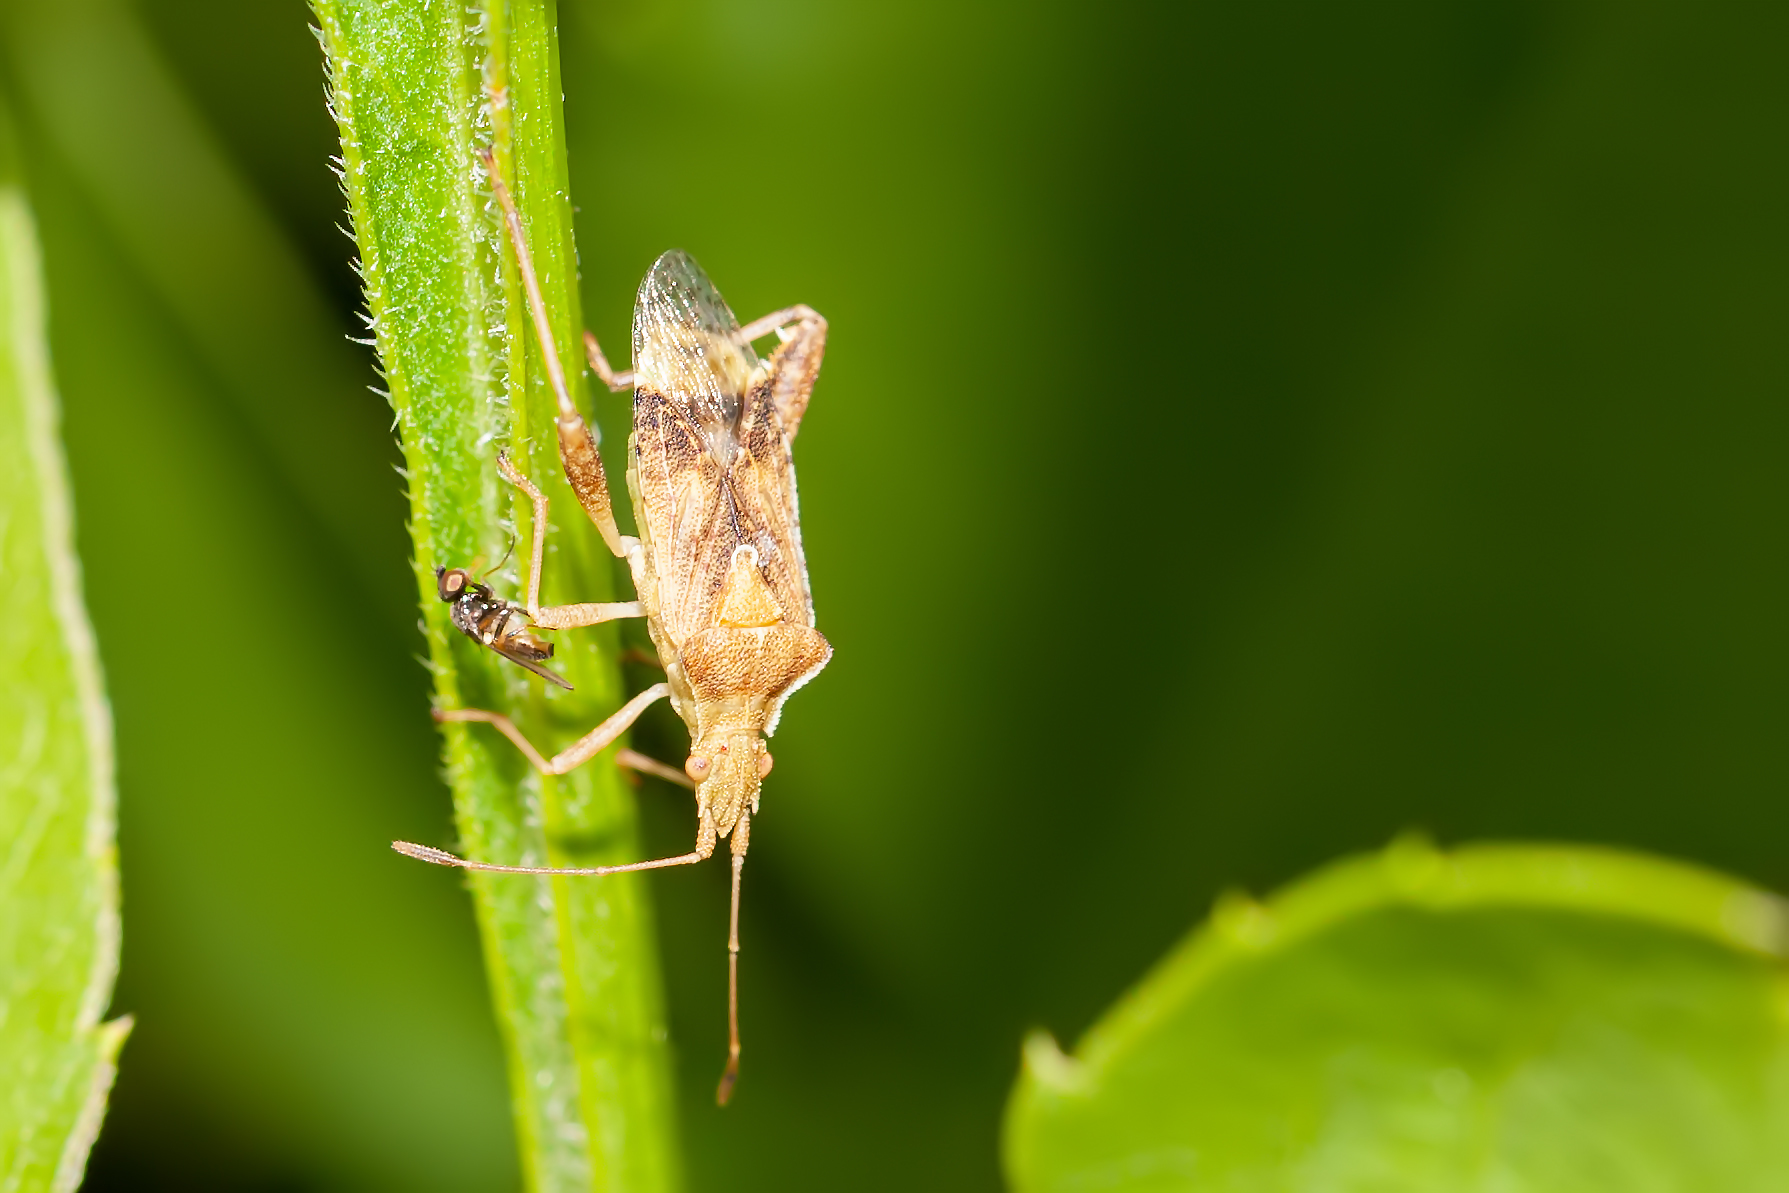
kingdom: Animalia
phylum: Arthropoda
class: Insecta
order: Hemiptera
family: Rhopalidae
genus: Harmostes
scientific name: Harmostes serratus
